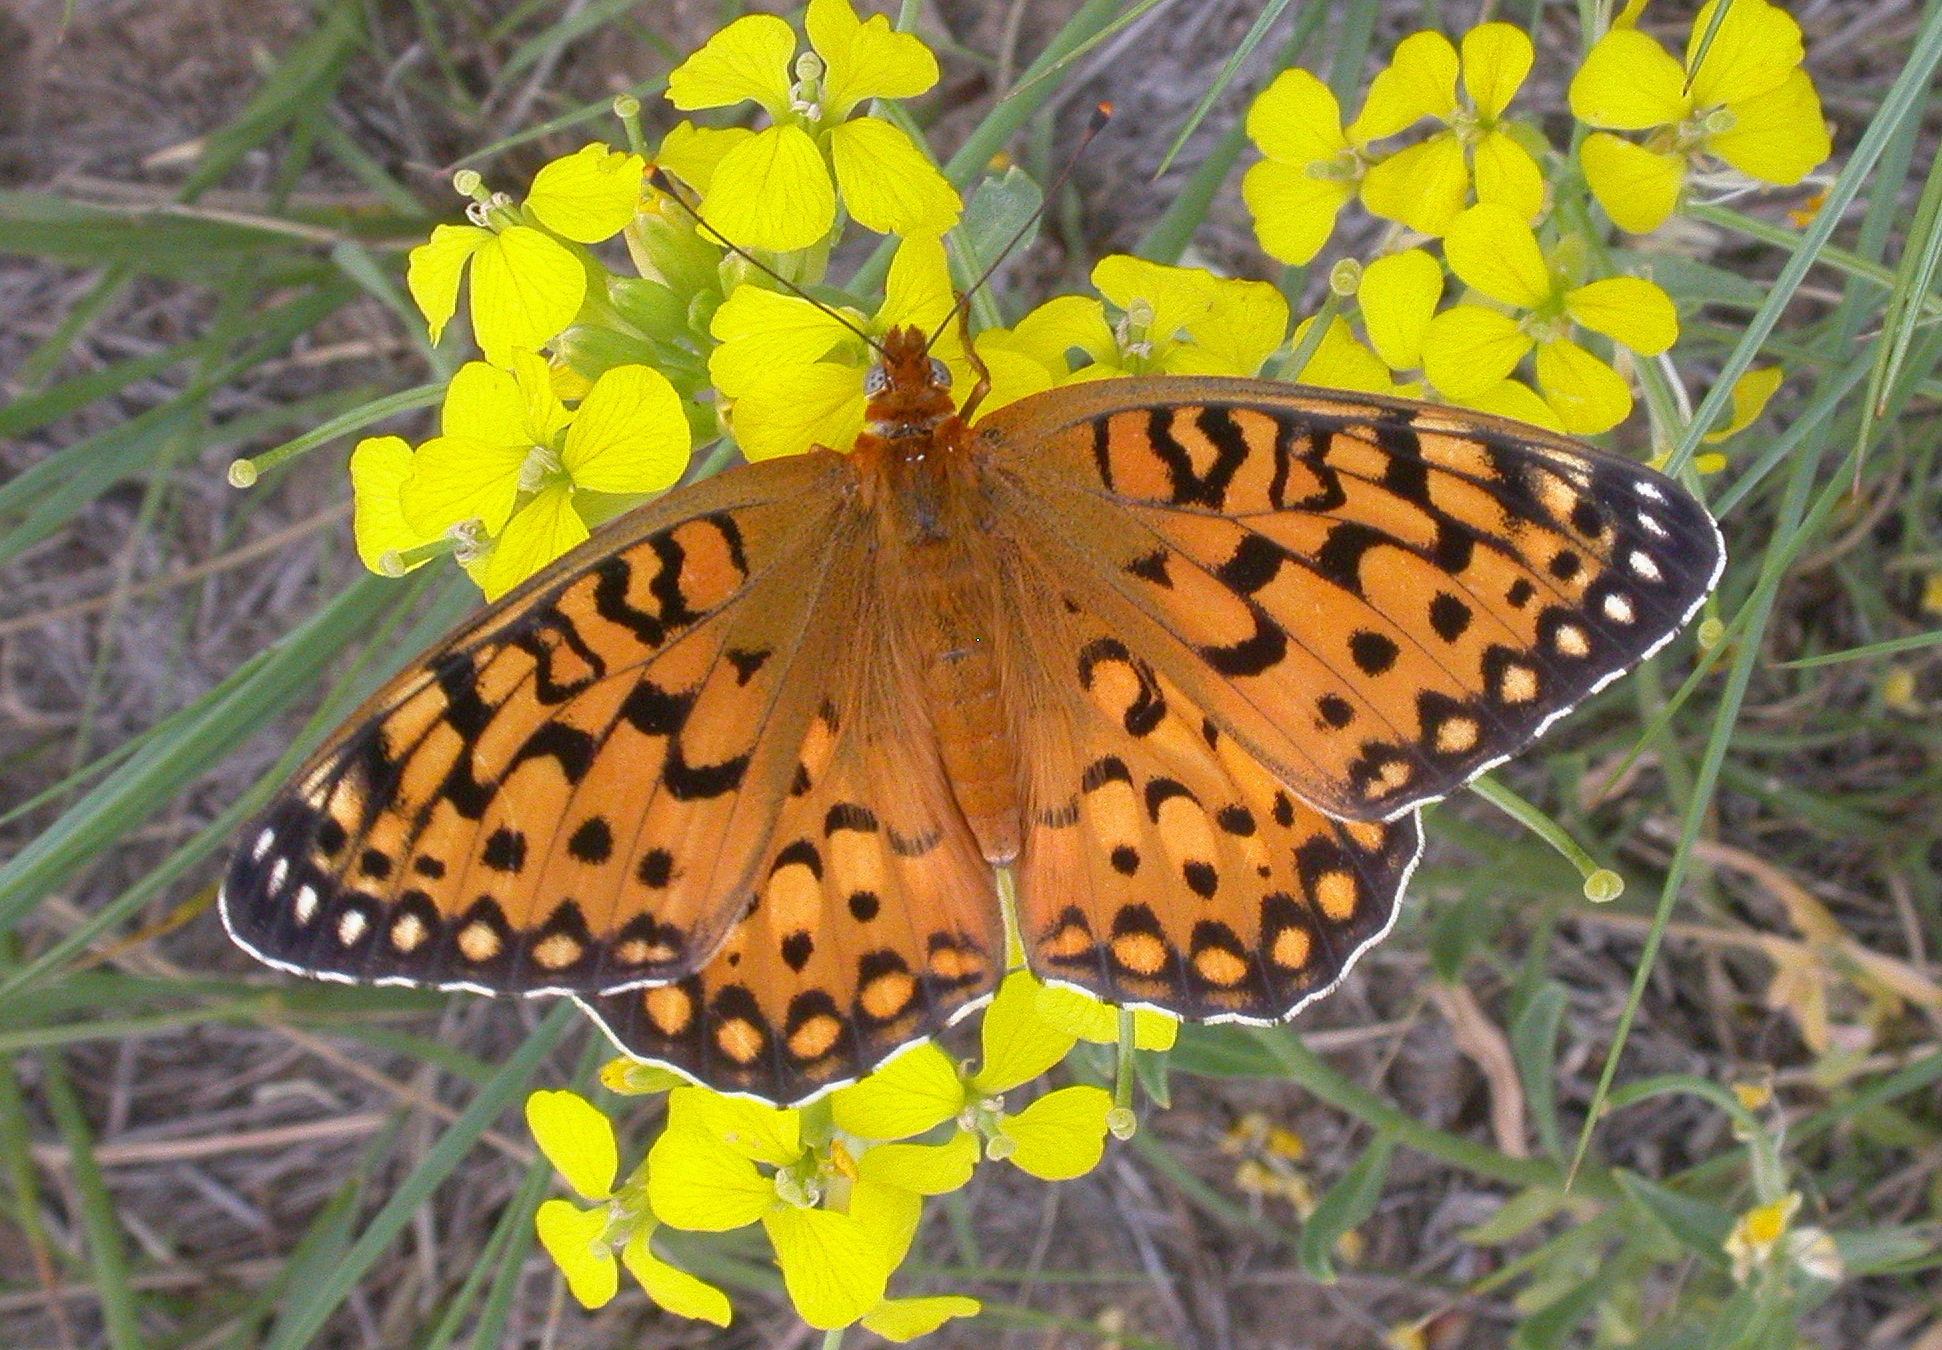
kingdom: Animalia
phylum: Arthropoda
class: Insecta
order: Lepidoptera
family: Nymphalidae
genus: Speyeria
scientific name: Speyeria edwardsii
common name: Edwards' fritillary
